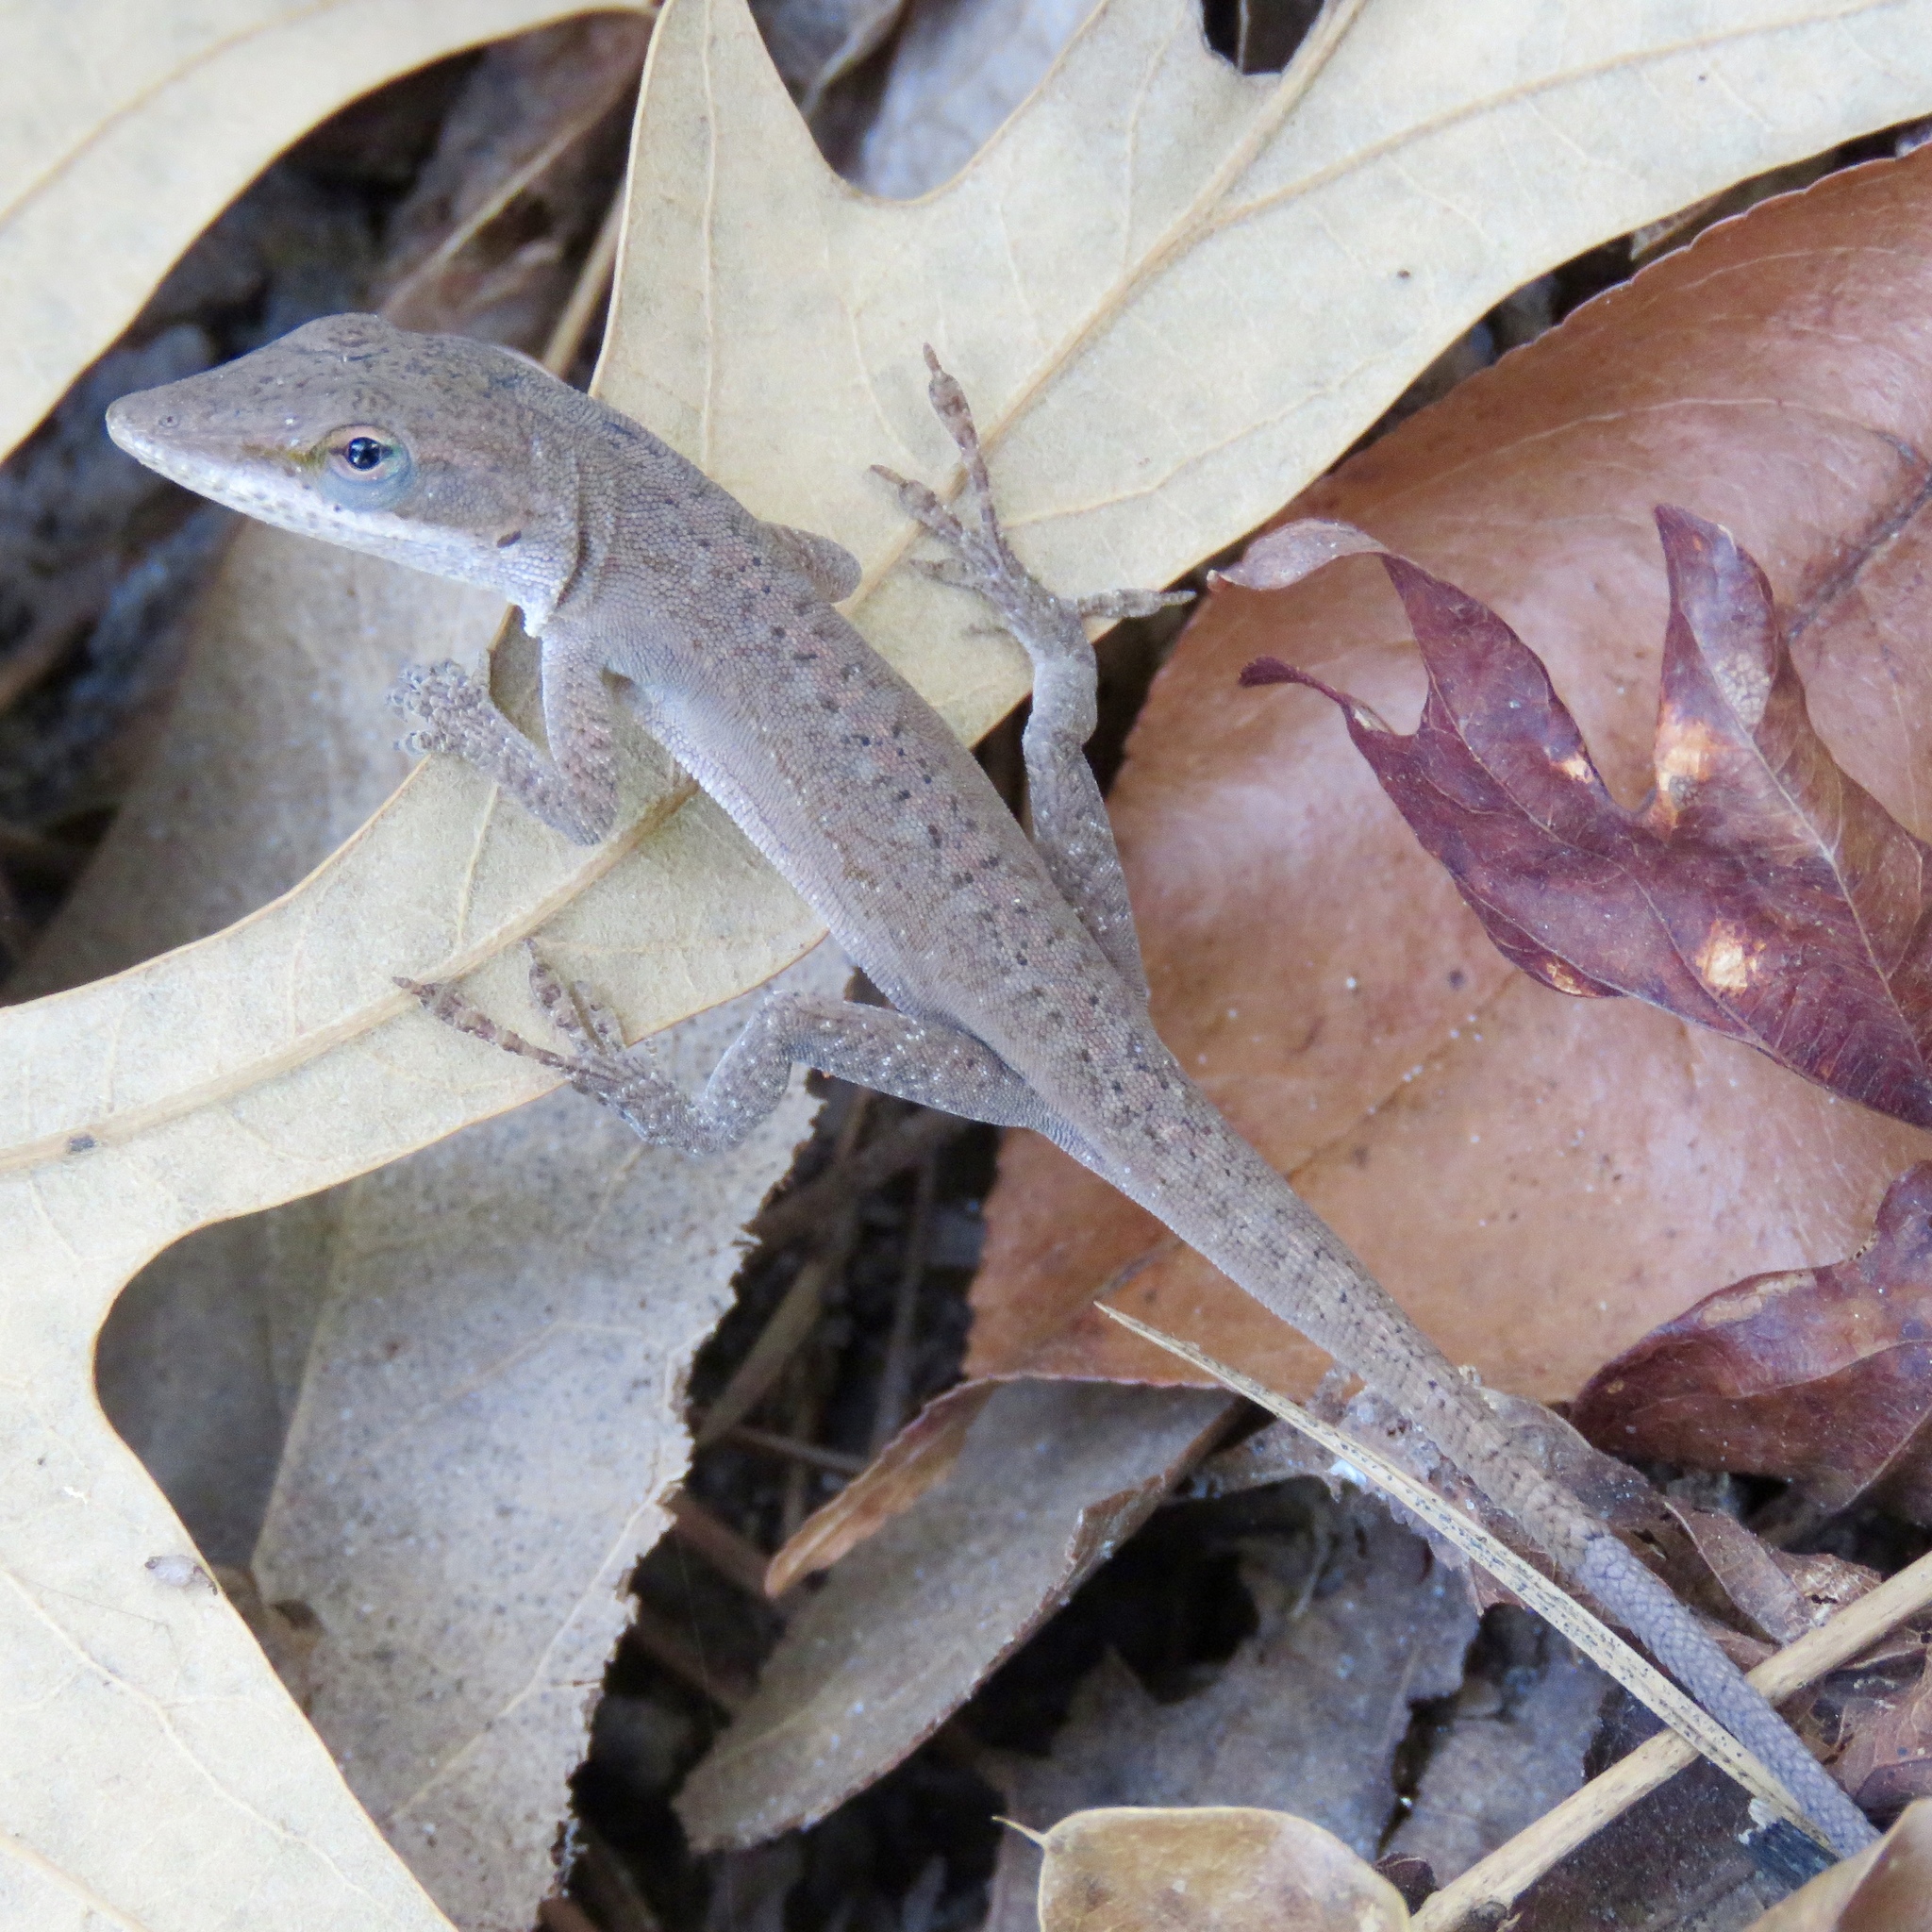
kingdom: Animalia
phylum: Chordata
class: Squamata
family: Dactyloidae
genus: Anolis
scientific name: Anolis carolinensis
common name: Green anole
